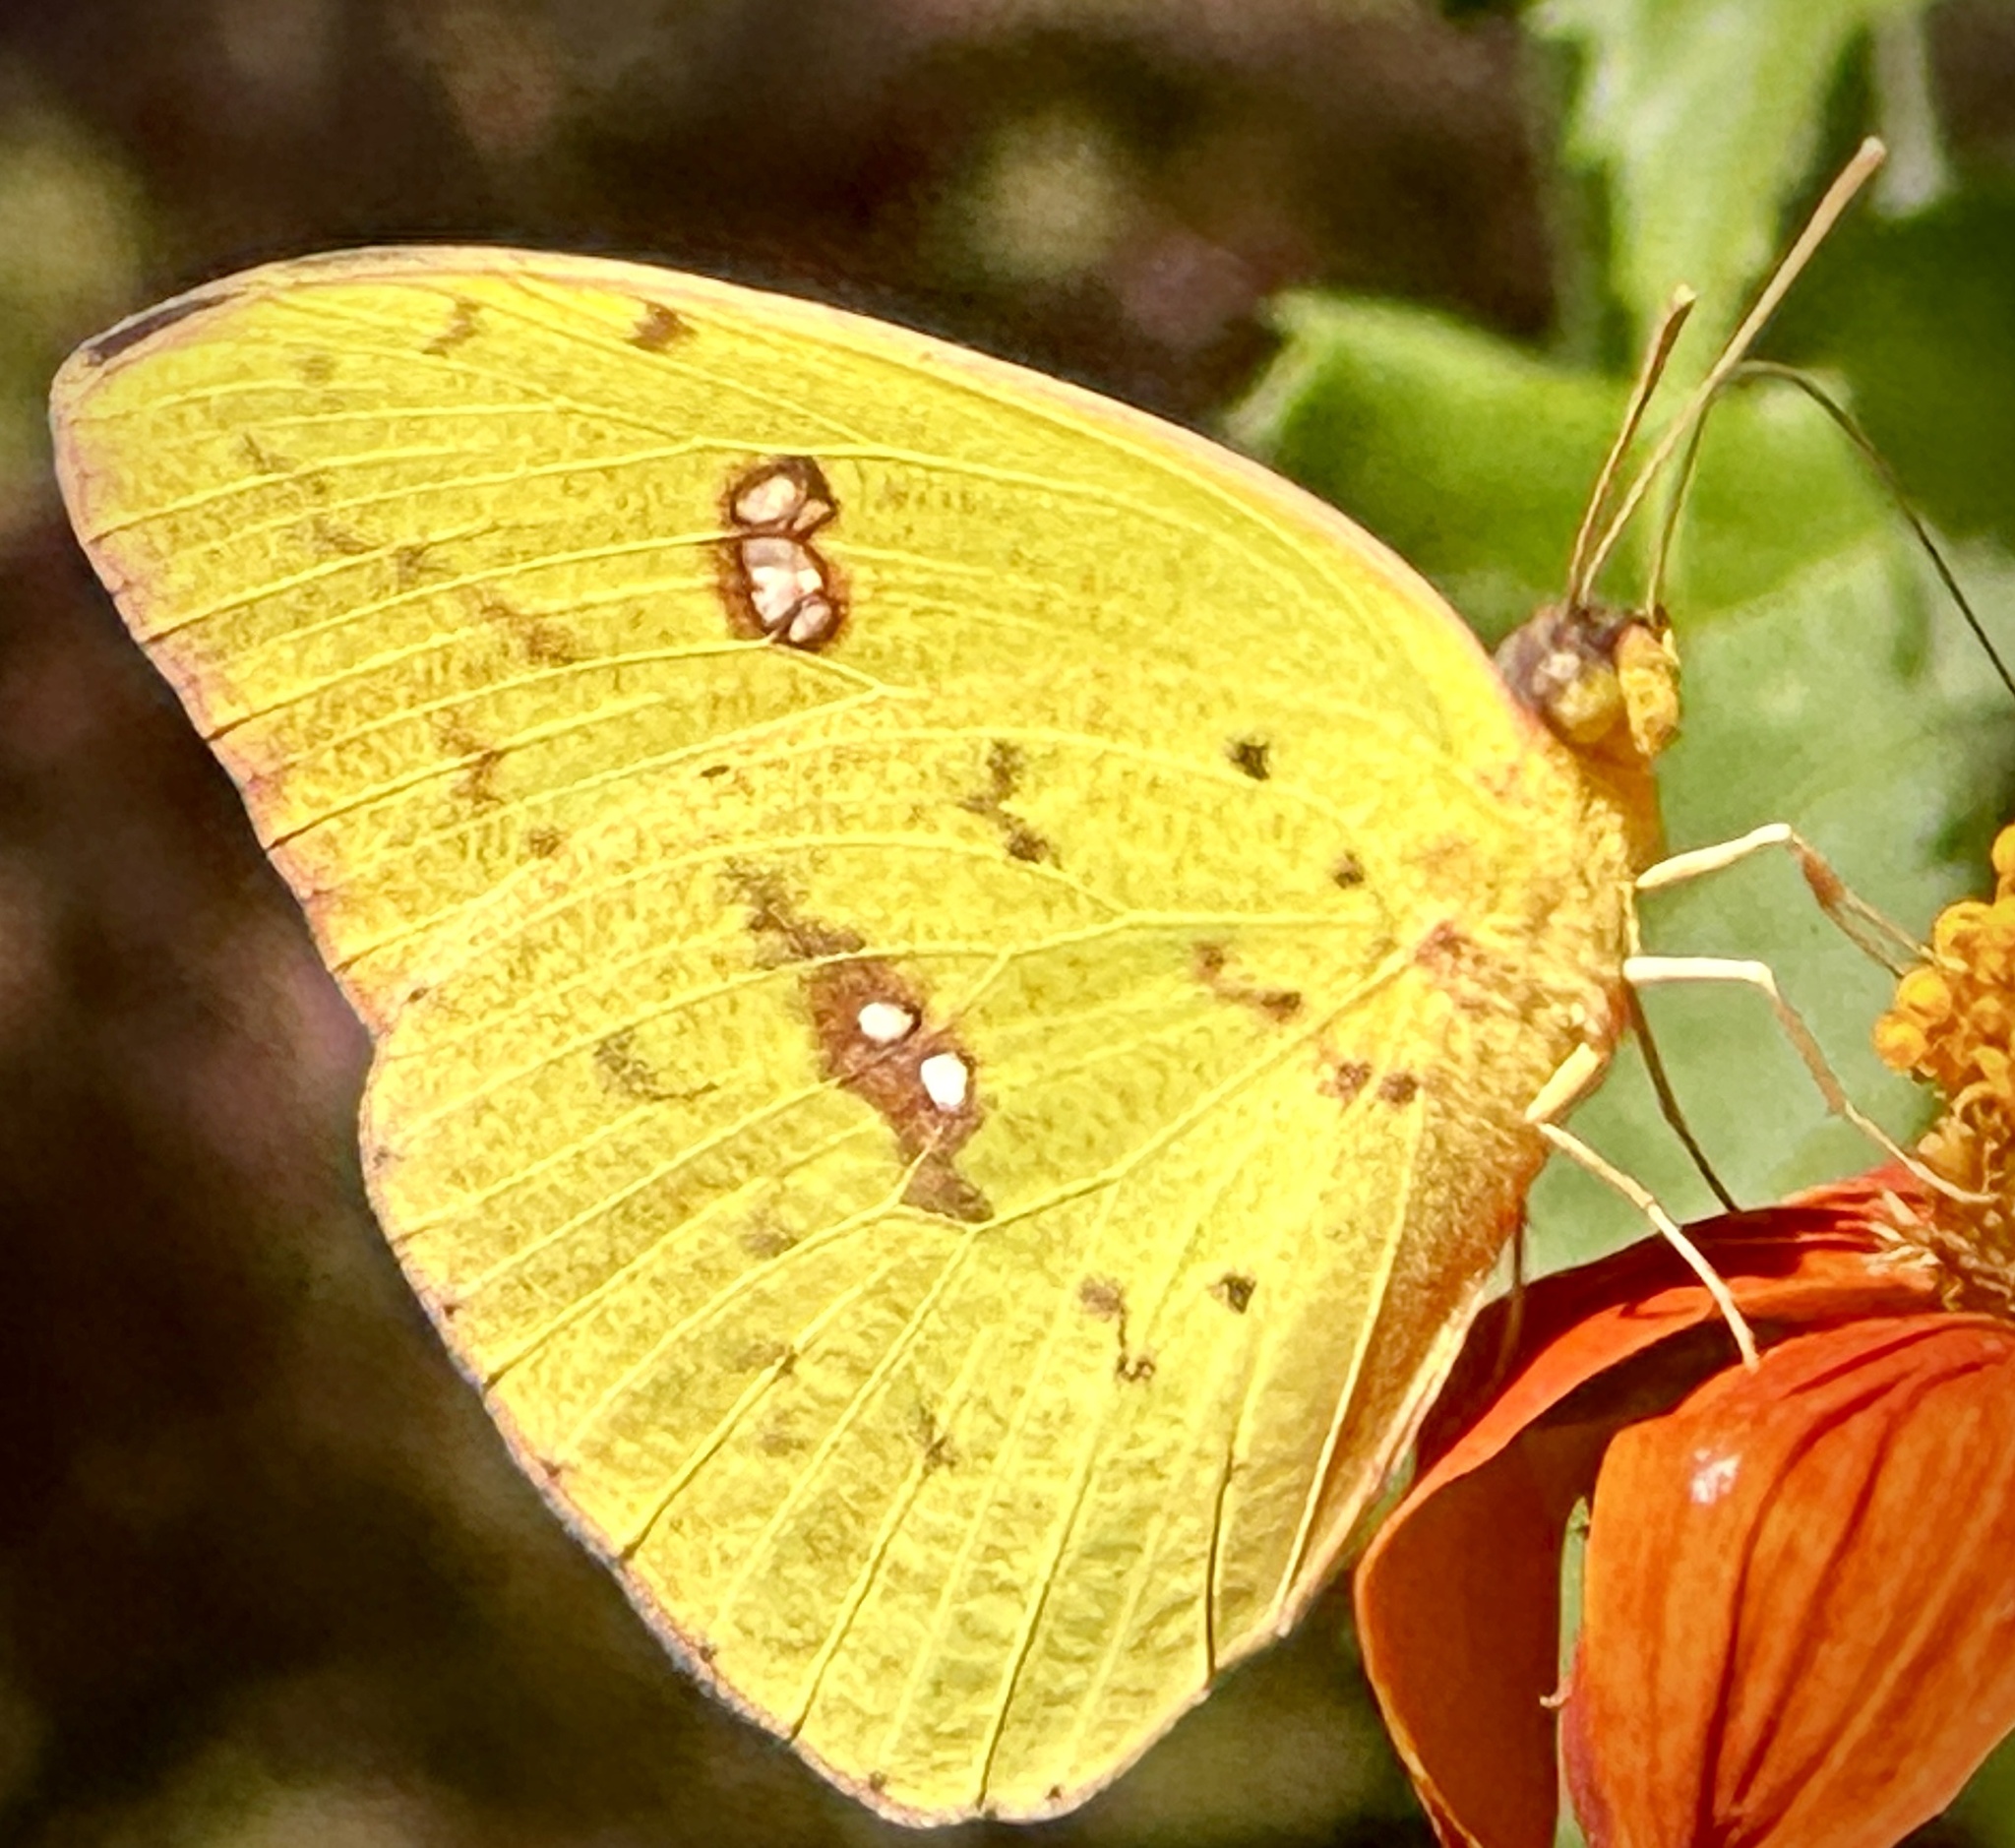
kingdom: Animalia
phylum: Arthropoda
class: Insecta
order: Lepidoptera
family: Pieridae
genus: Phoebis
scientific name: Phoebis sennae
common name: Cloudless sulphur
